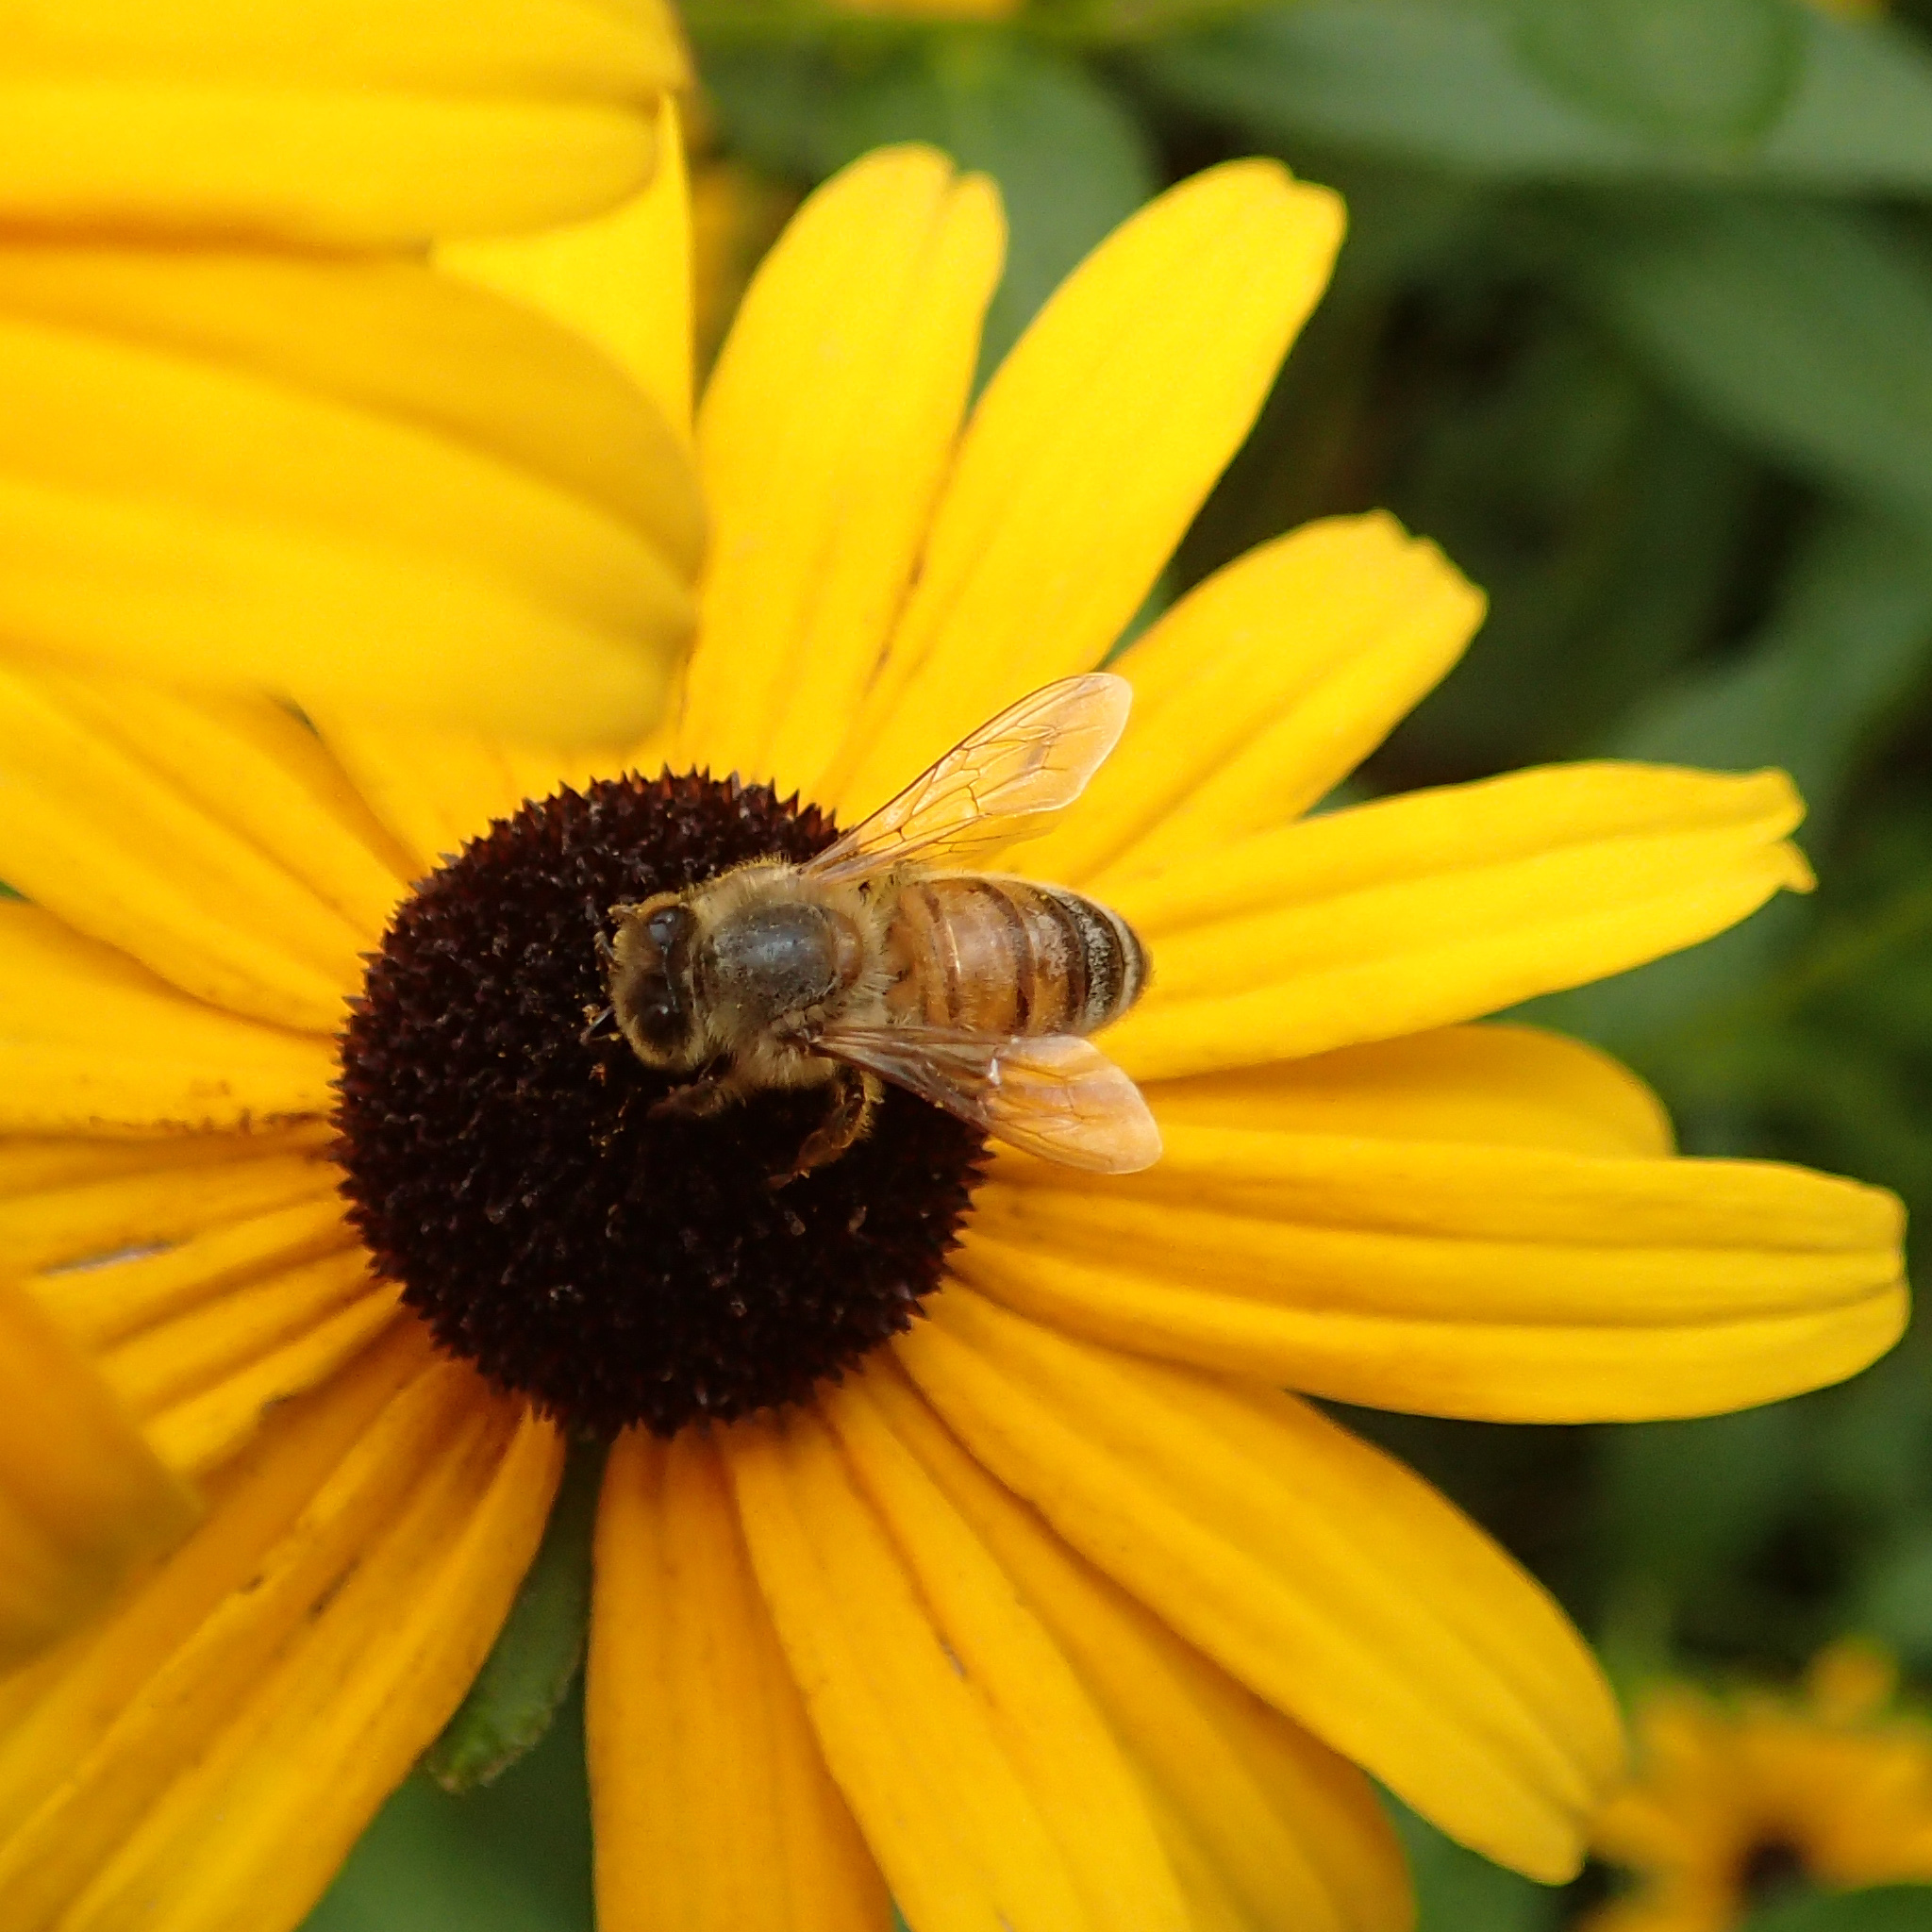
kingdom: Animalia
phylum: Arthropoda
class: Insecta
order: Hymenoptera
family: Apidae
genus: Apis
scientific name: Apis mellifera
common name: Honey bee
